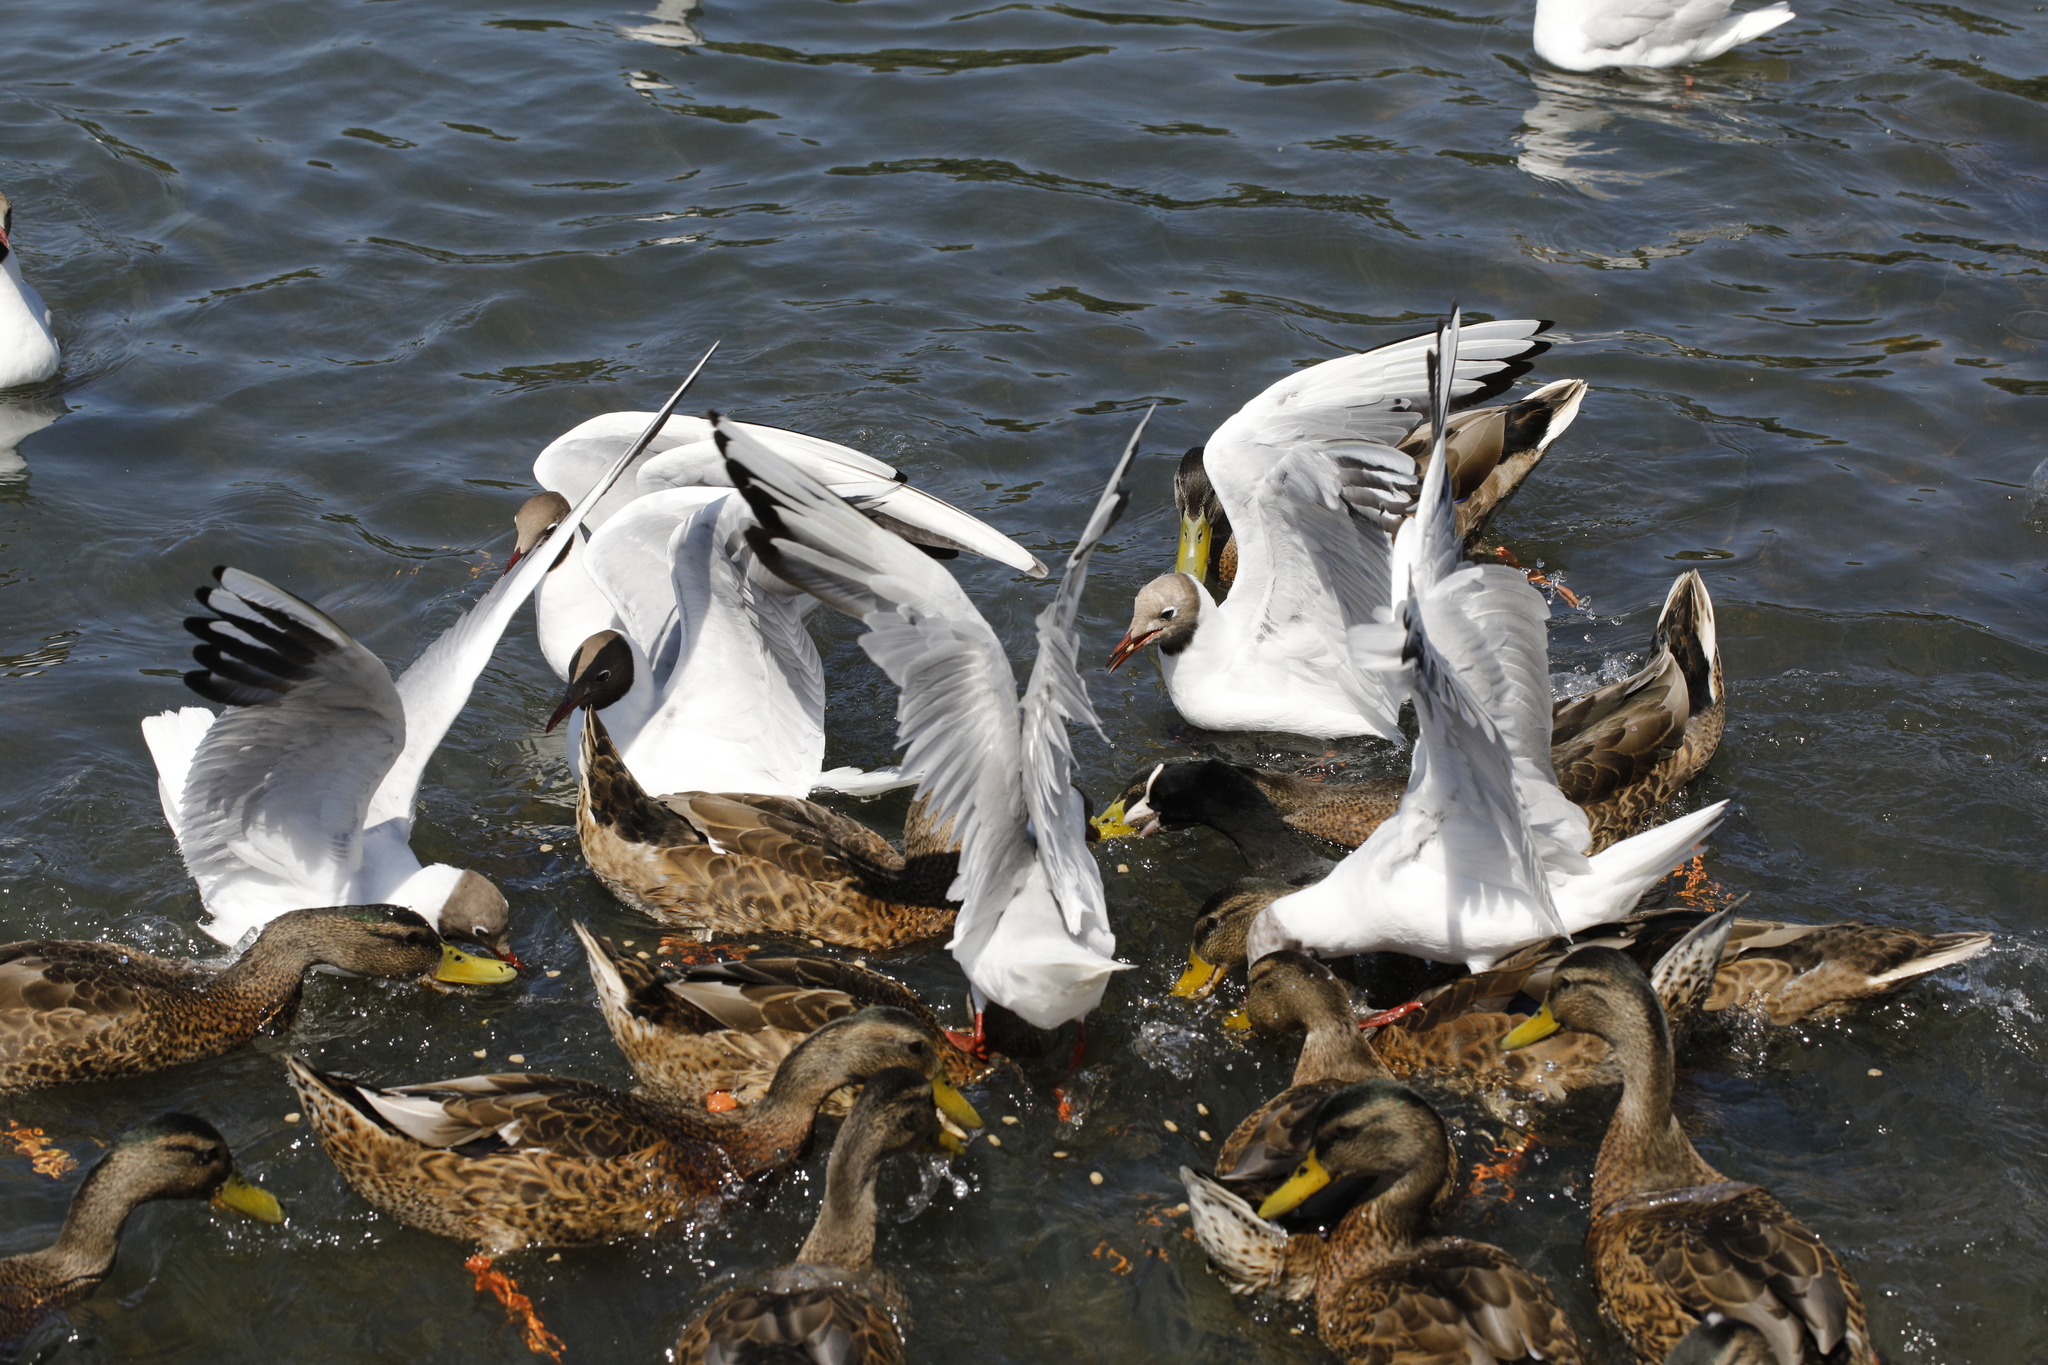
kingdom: Animalia
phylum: Chordata
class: Aves
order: Charadriiformes
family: Laridae
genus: Chroicocephalus
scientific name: Chroicocephalus ridibundus
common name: Black-headed gull
